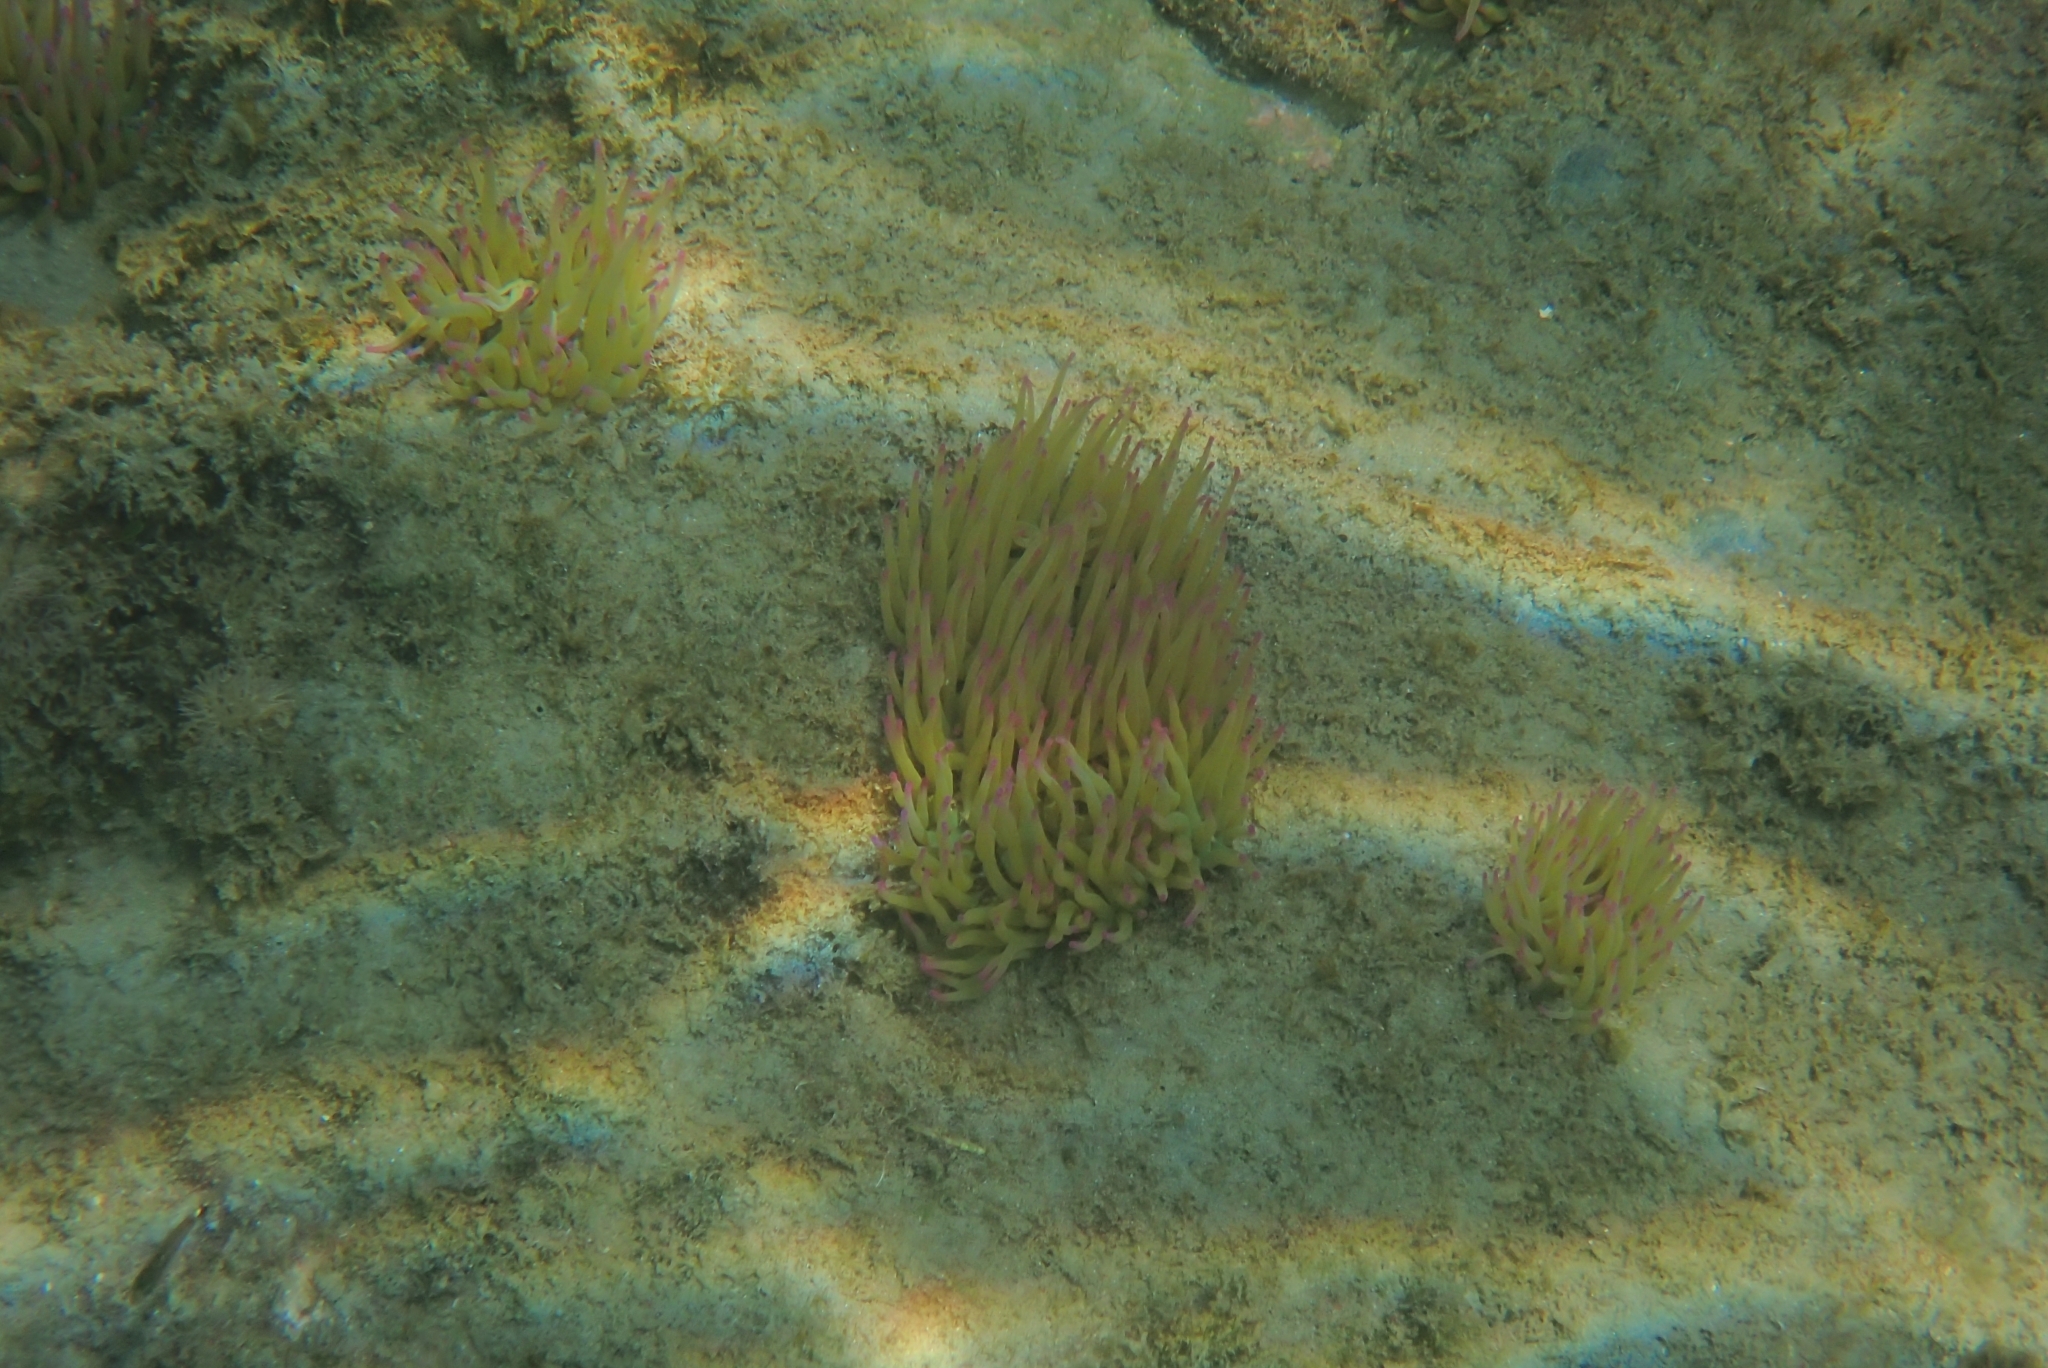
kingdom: Animalia
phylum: Cnidaria
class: Anthozoa
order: Actiniaria
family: Actiniidae
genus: Anemonia
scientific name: Anemonia viridis
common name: Snakelocks anemone
